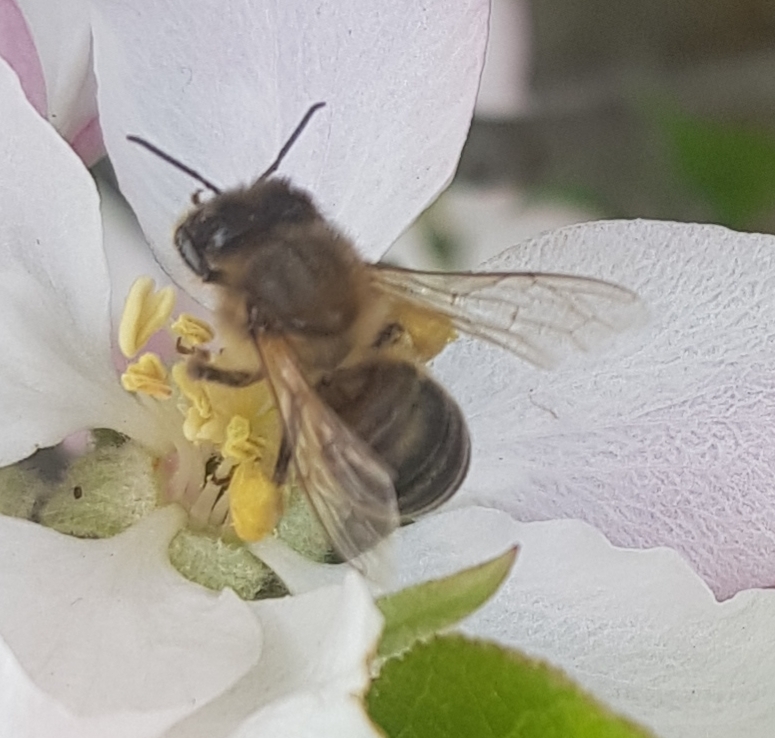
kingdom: Animalia
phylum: Arthropoda
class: Insecta
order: Hymenoptera
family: Apidae
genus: Apis
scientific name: Apis mellifera
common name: Honey bee
